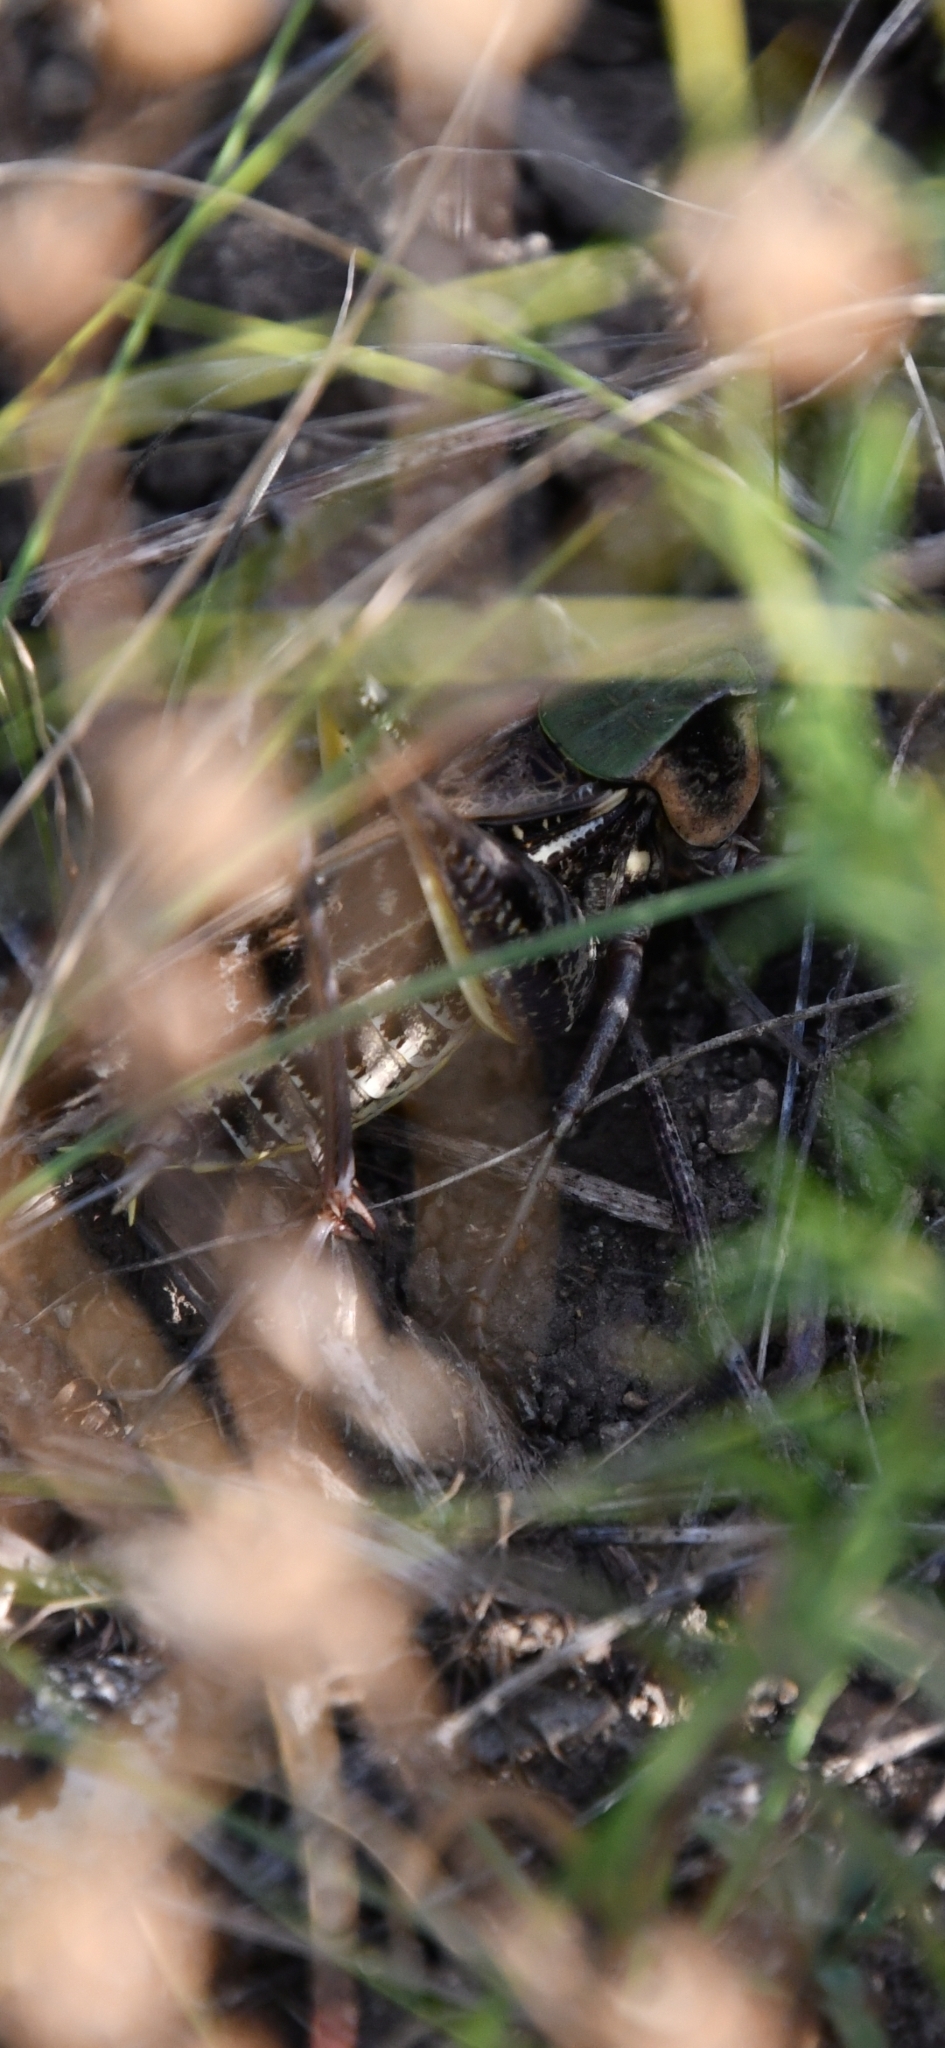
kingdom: Animalia
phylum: Arthropoda
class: Insecta
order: Orthoptera
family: Tettigoniidae
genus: Decticus
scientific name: Decticus verrucivorus
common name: Wart-biter
